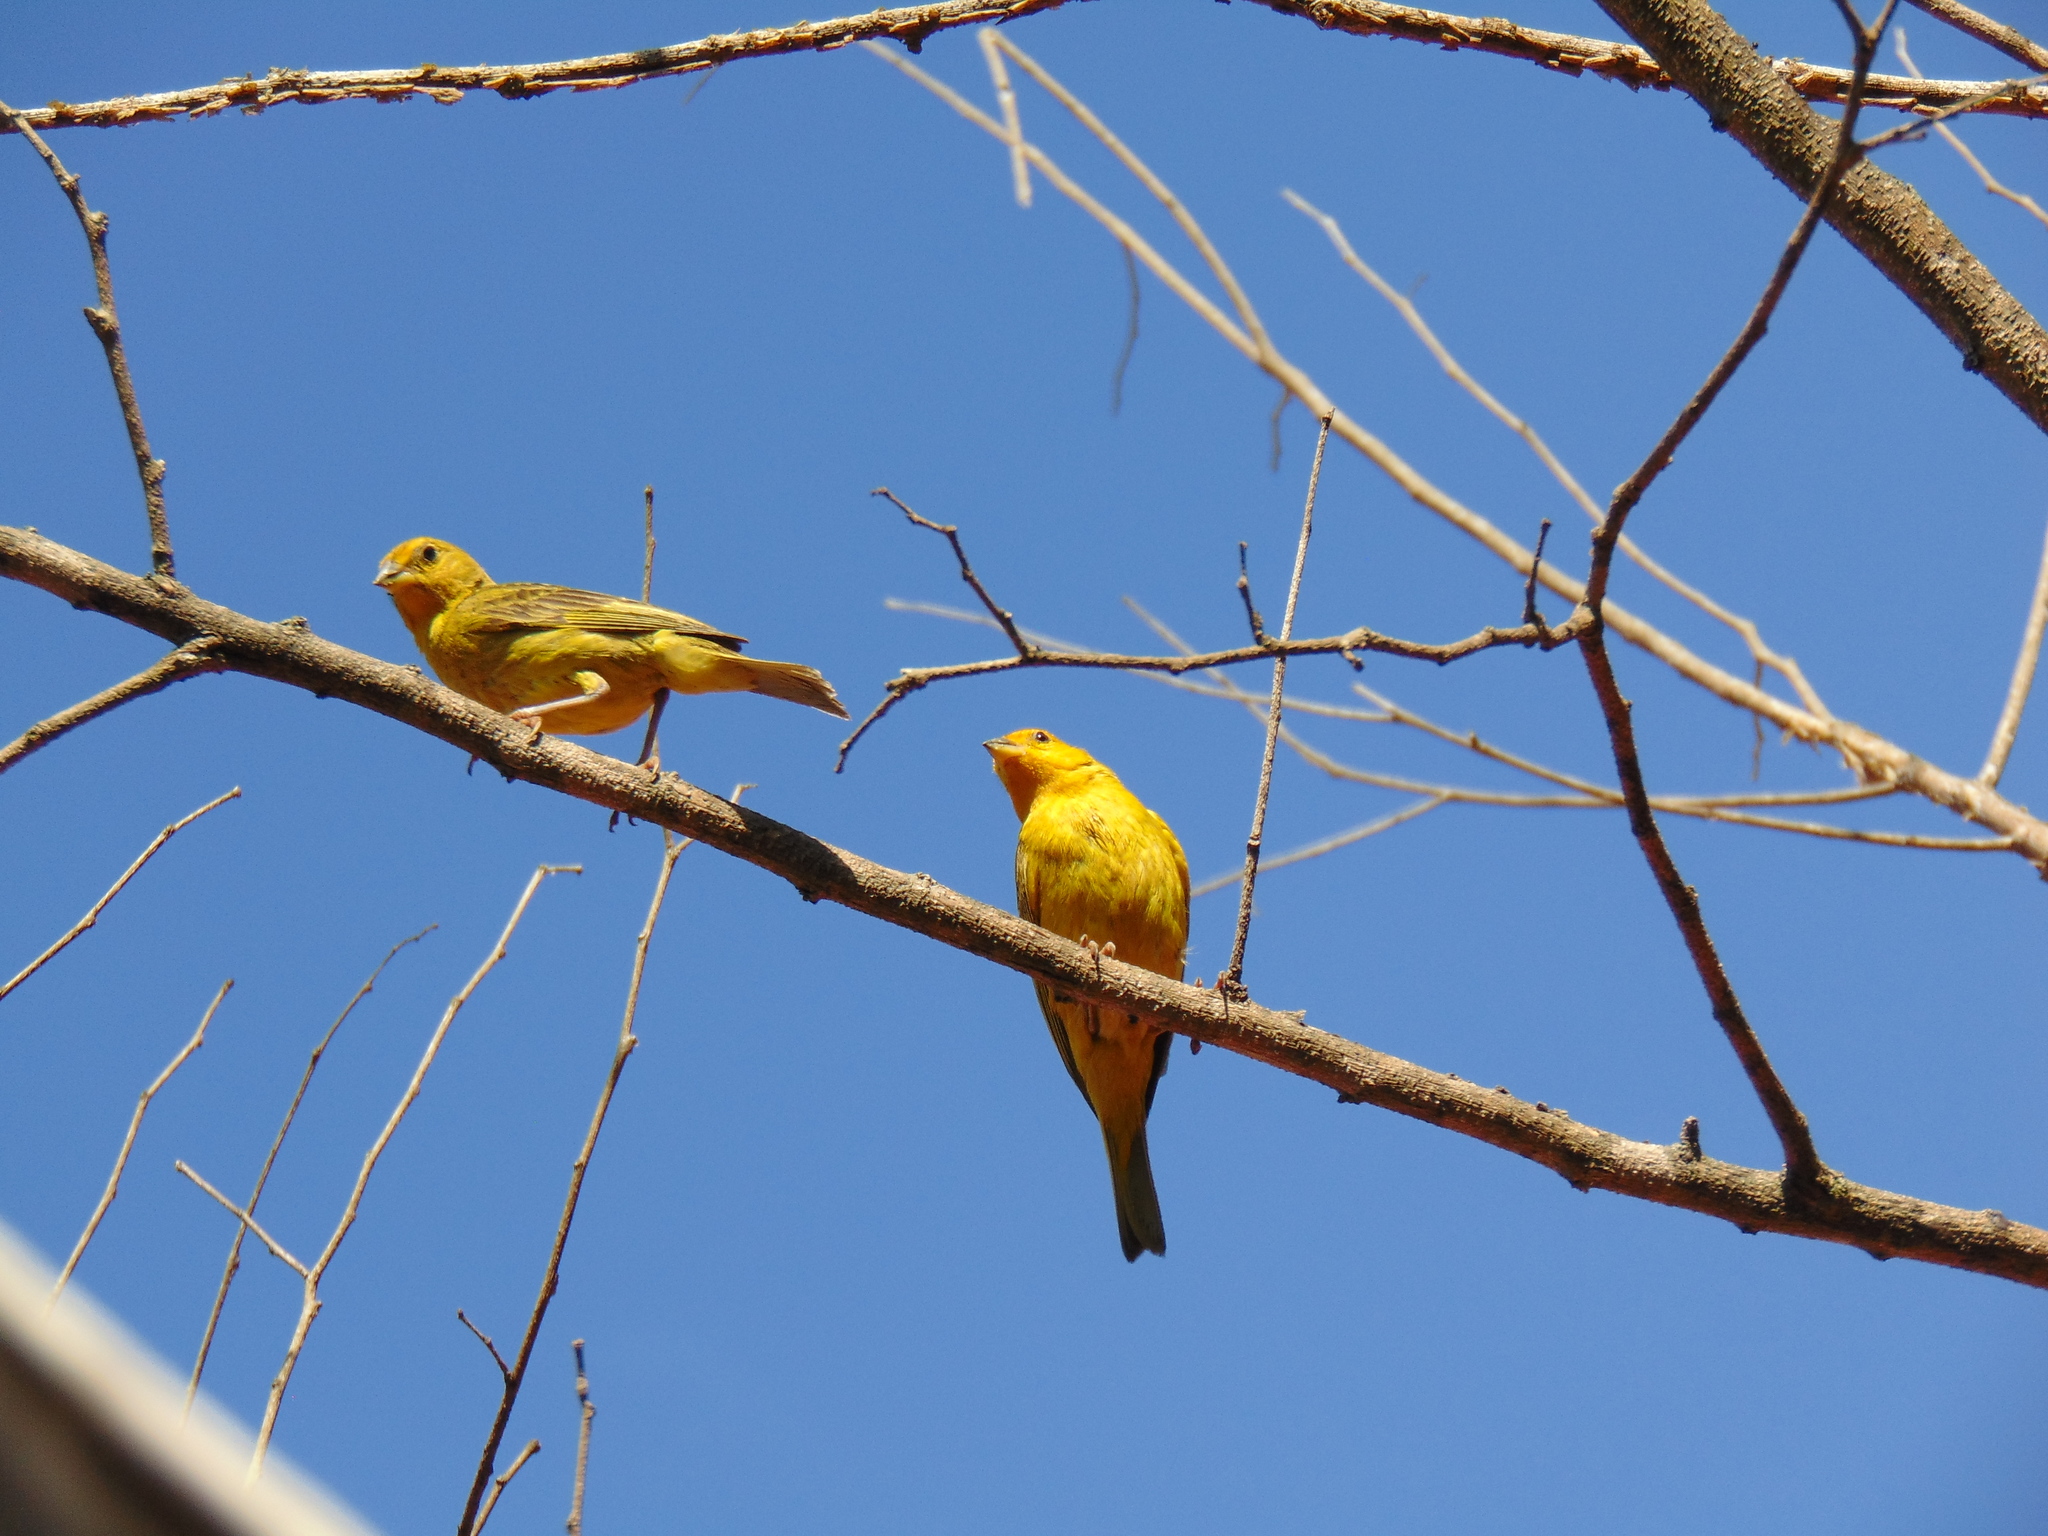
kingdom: Animalia
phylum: Chordata
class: Aves
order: Passeriformes
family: Thraupidae
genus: Sicalis
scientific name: Sicalis flaveola
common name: Saffron finch
